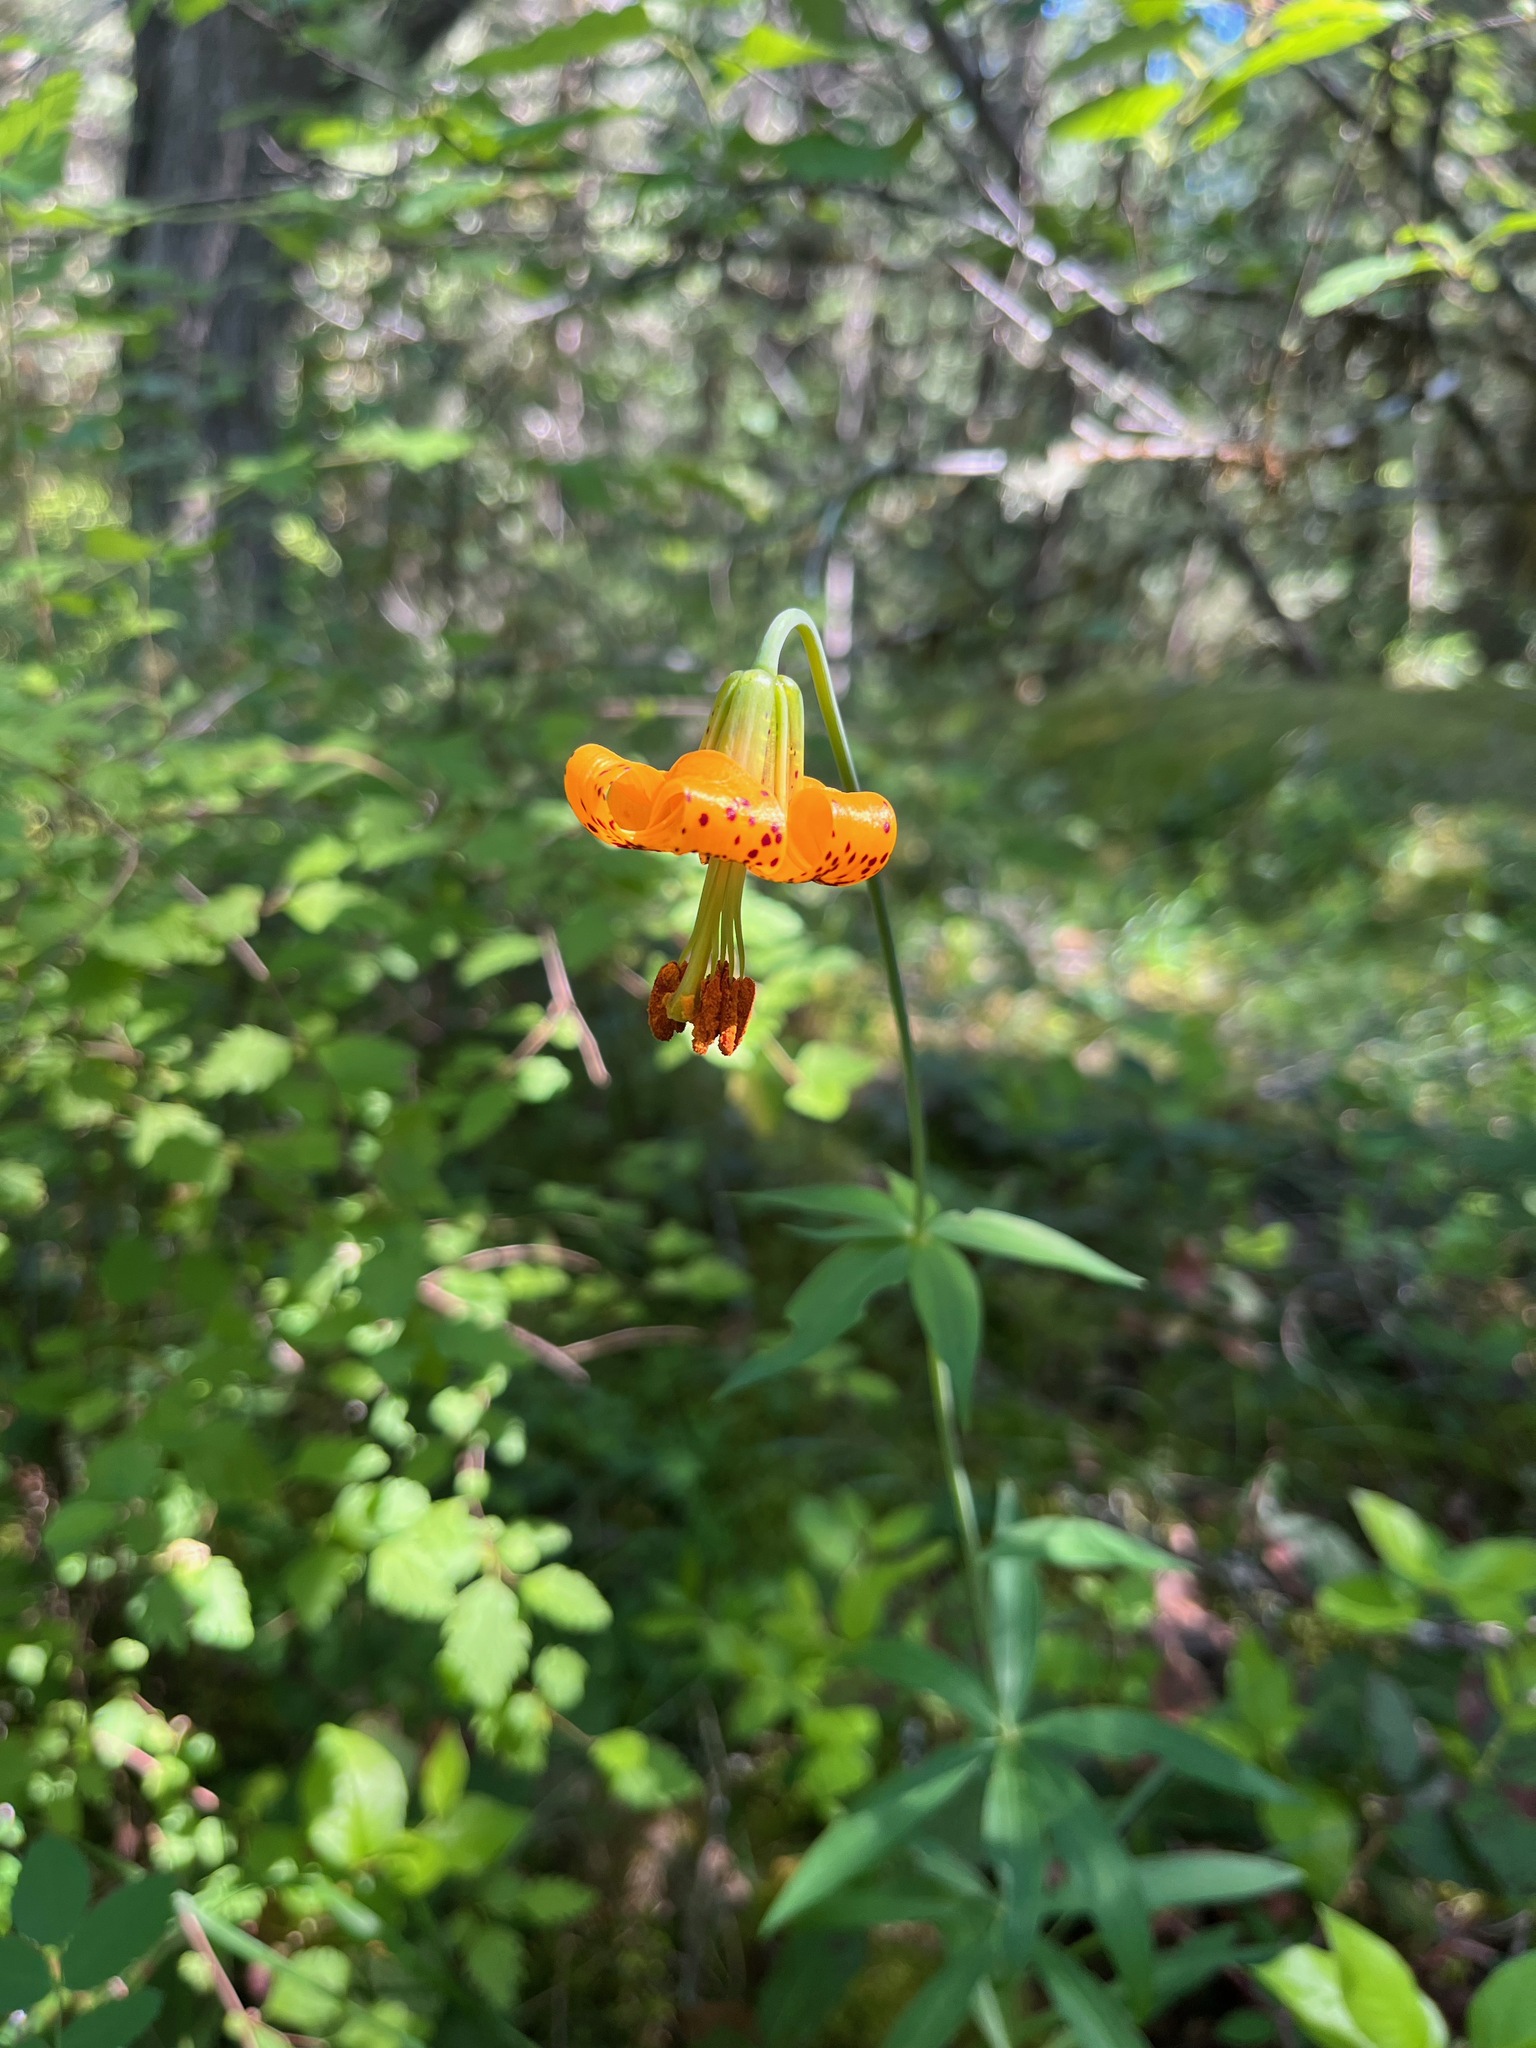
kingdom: Plantae
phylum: Tracheophyta
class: Liliopsida
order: Liliales
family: Liliaceae
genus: Lilium
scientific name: Lilium columbianum
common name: Columbia lily
